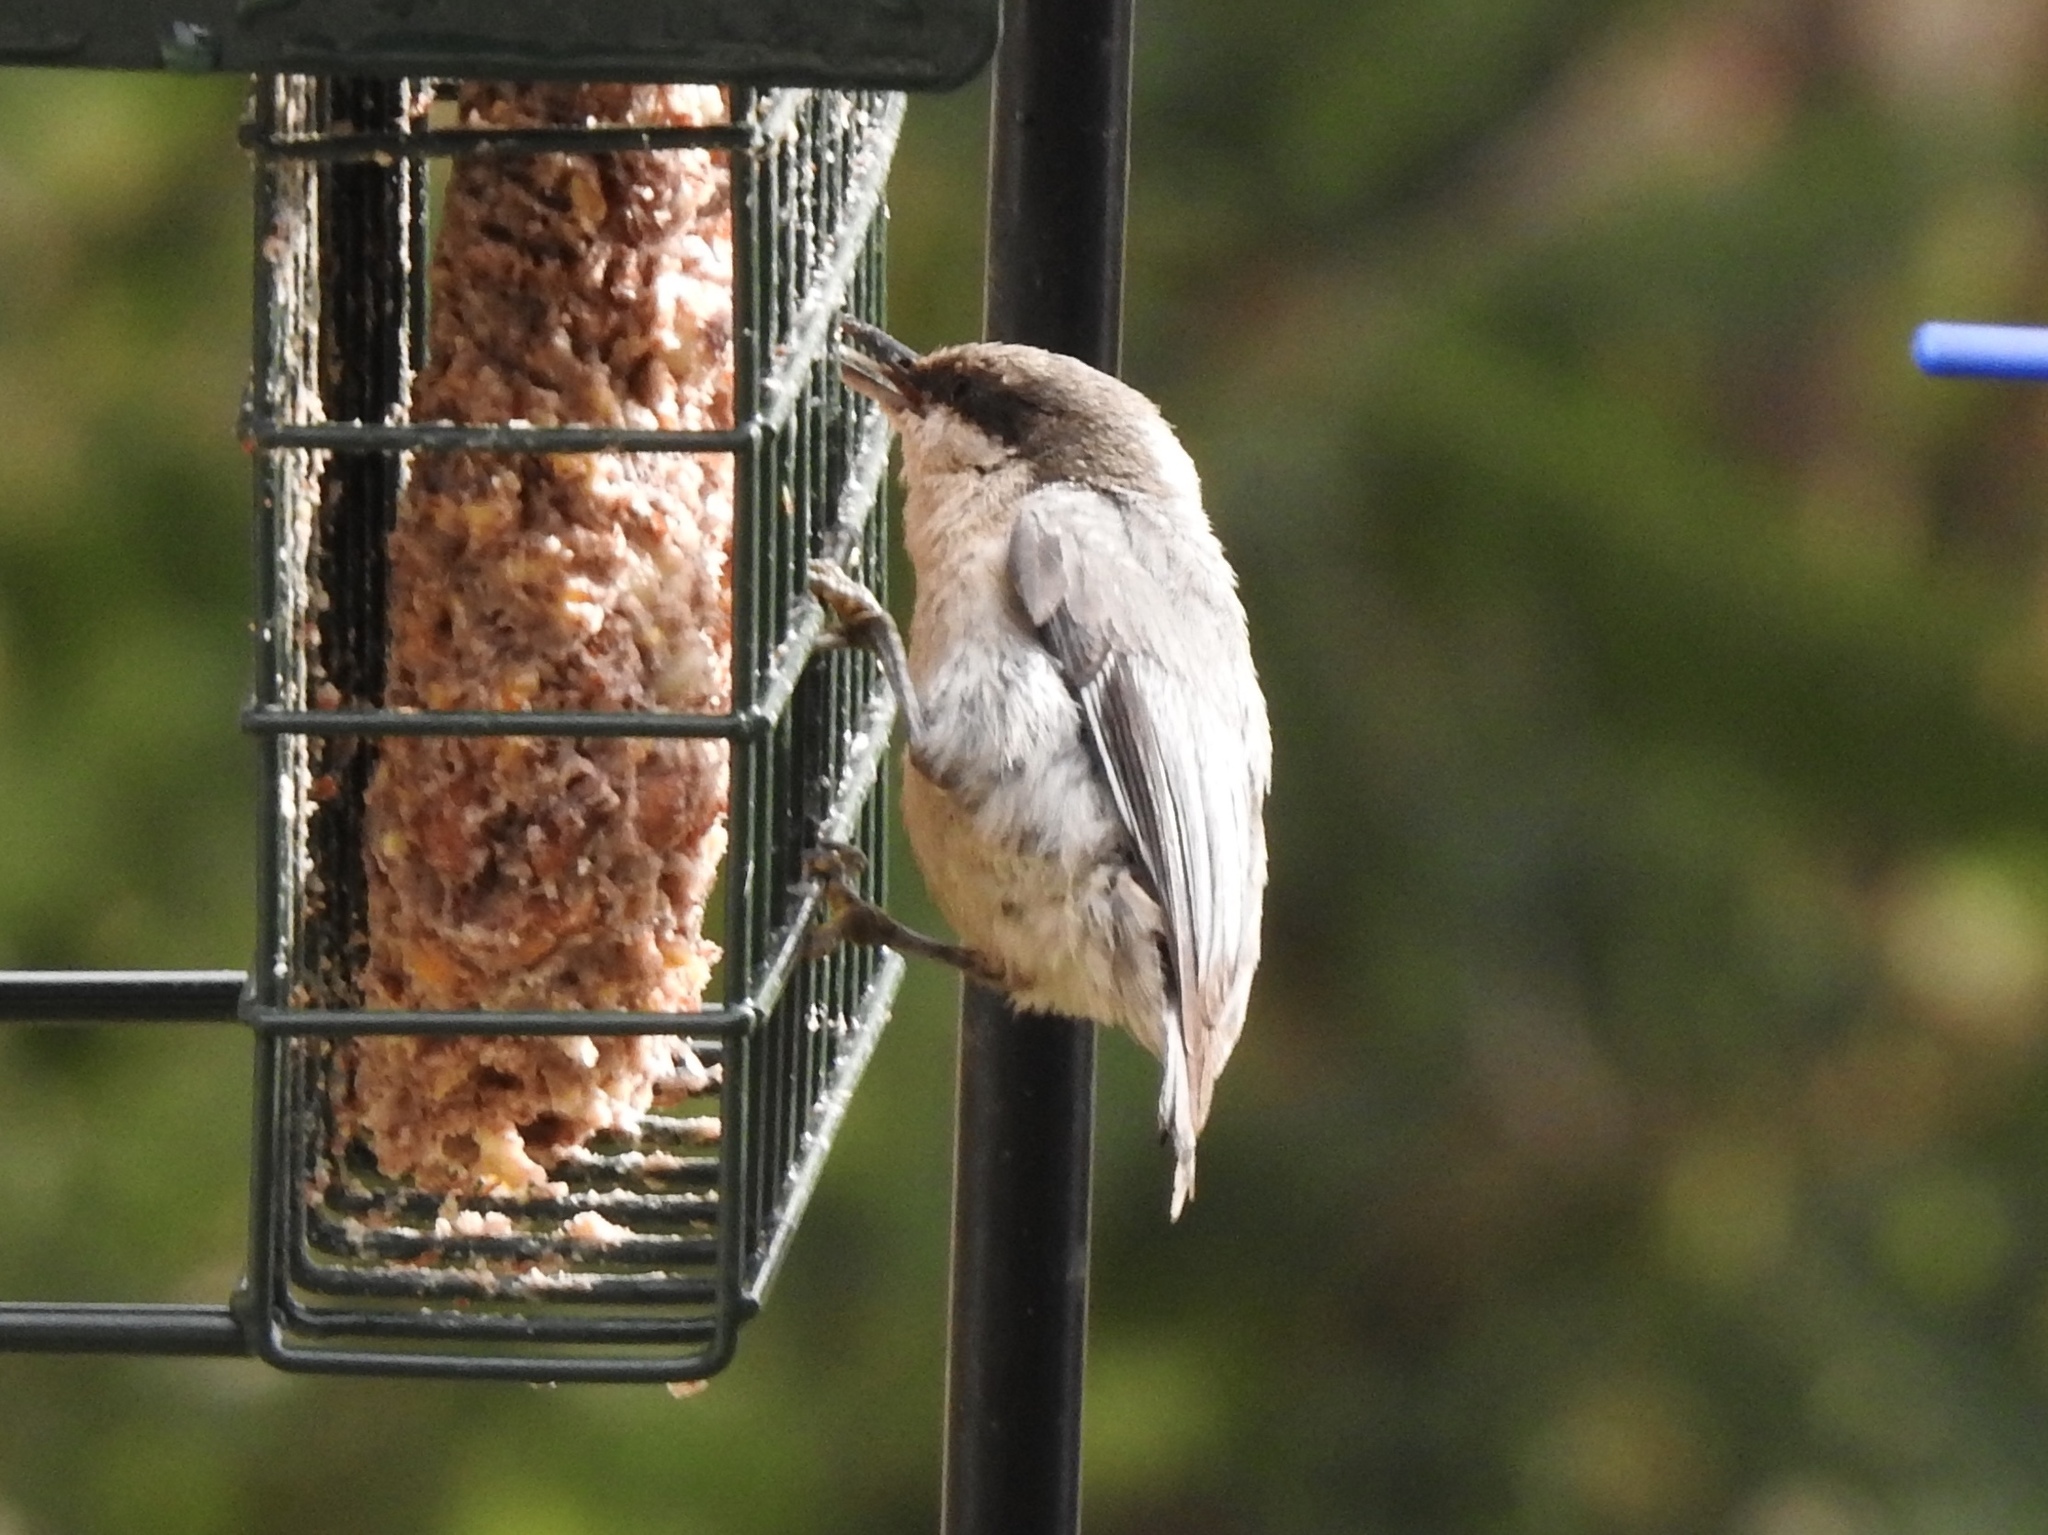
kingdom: Animalia
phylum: Chordata
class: Aves
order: Passeriformes
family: Sittidae
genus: Sitta
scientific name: Sitta pygmaea
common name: Pygmy nuthatch
